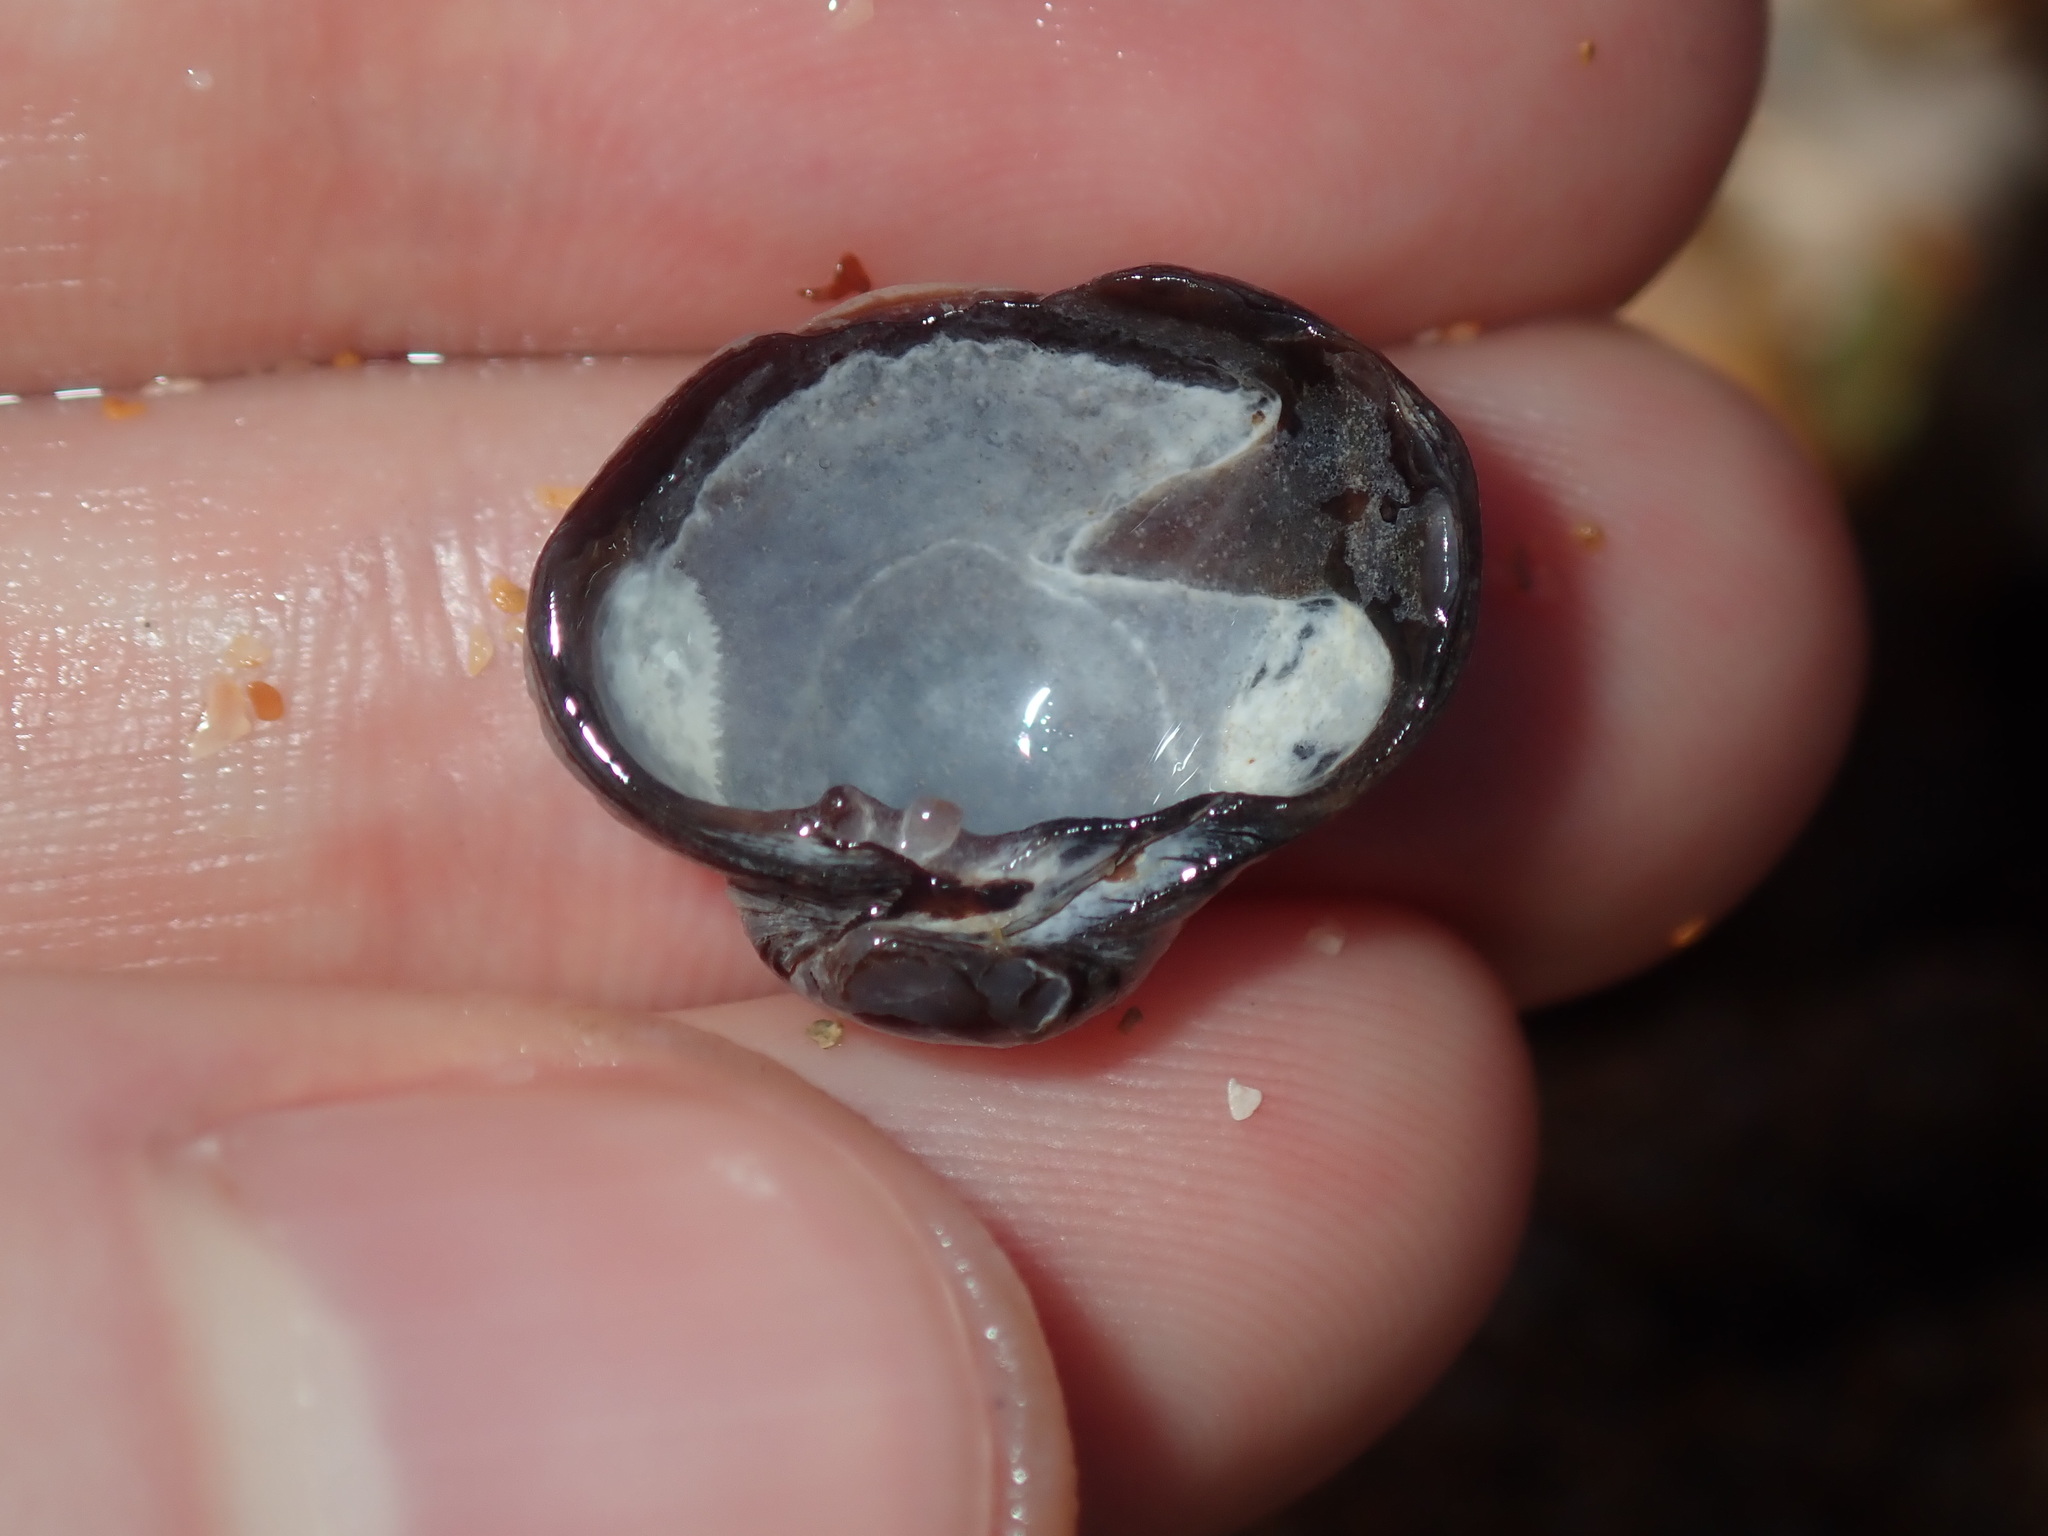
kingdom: Animalia
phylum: Mollusca
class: Bivalvia
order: Venerida
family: Veneridae
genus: Irus
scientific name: Irus cumingii
